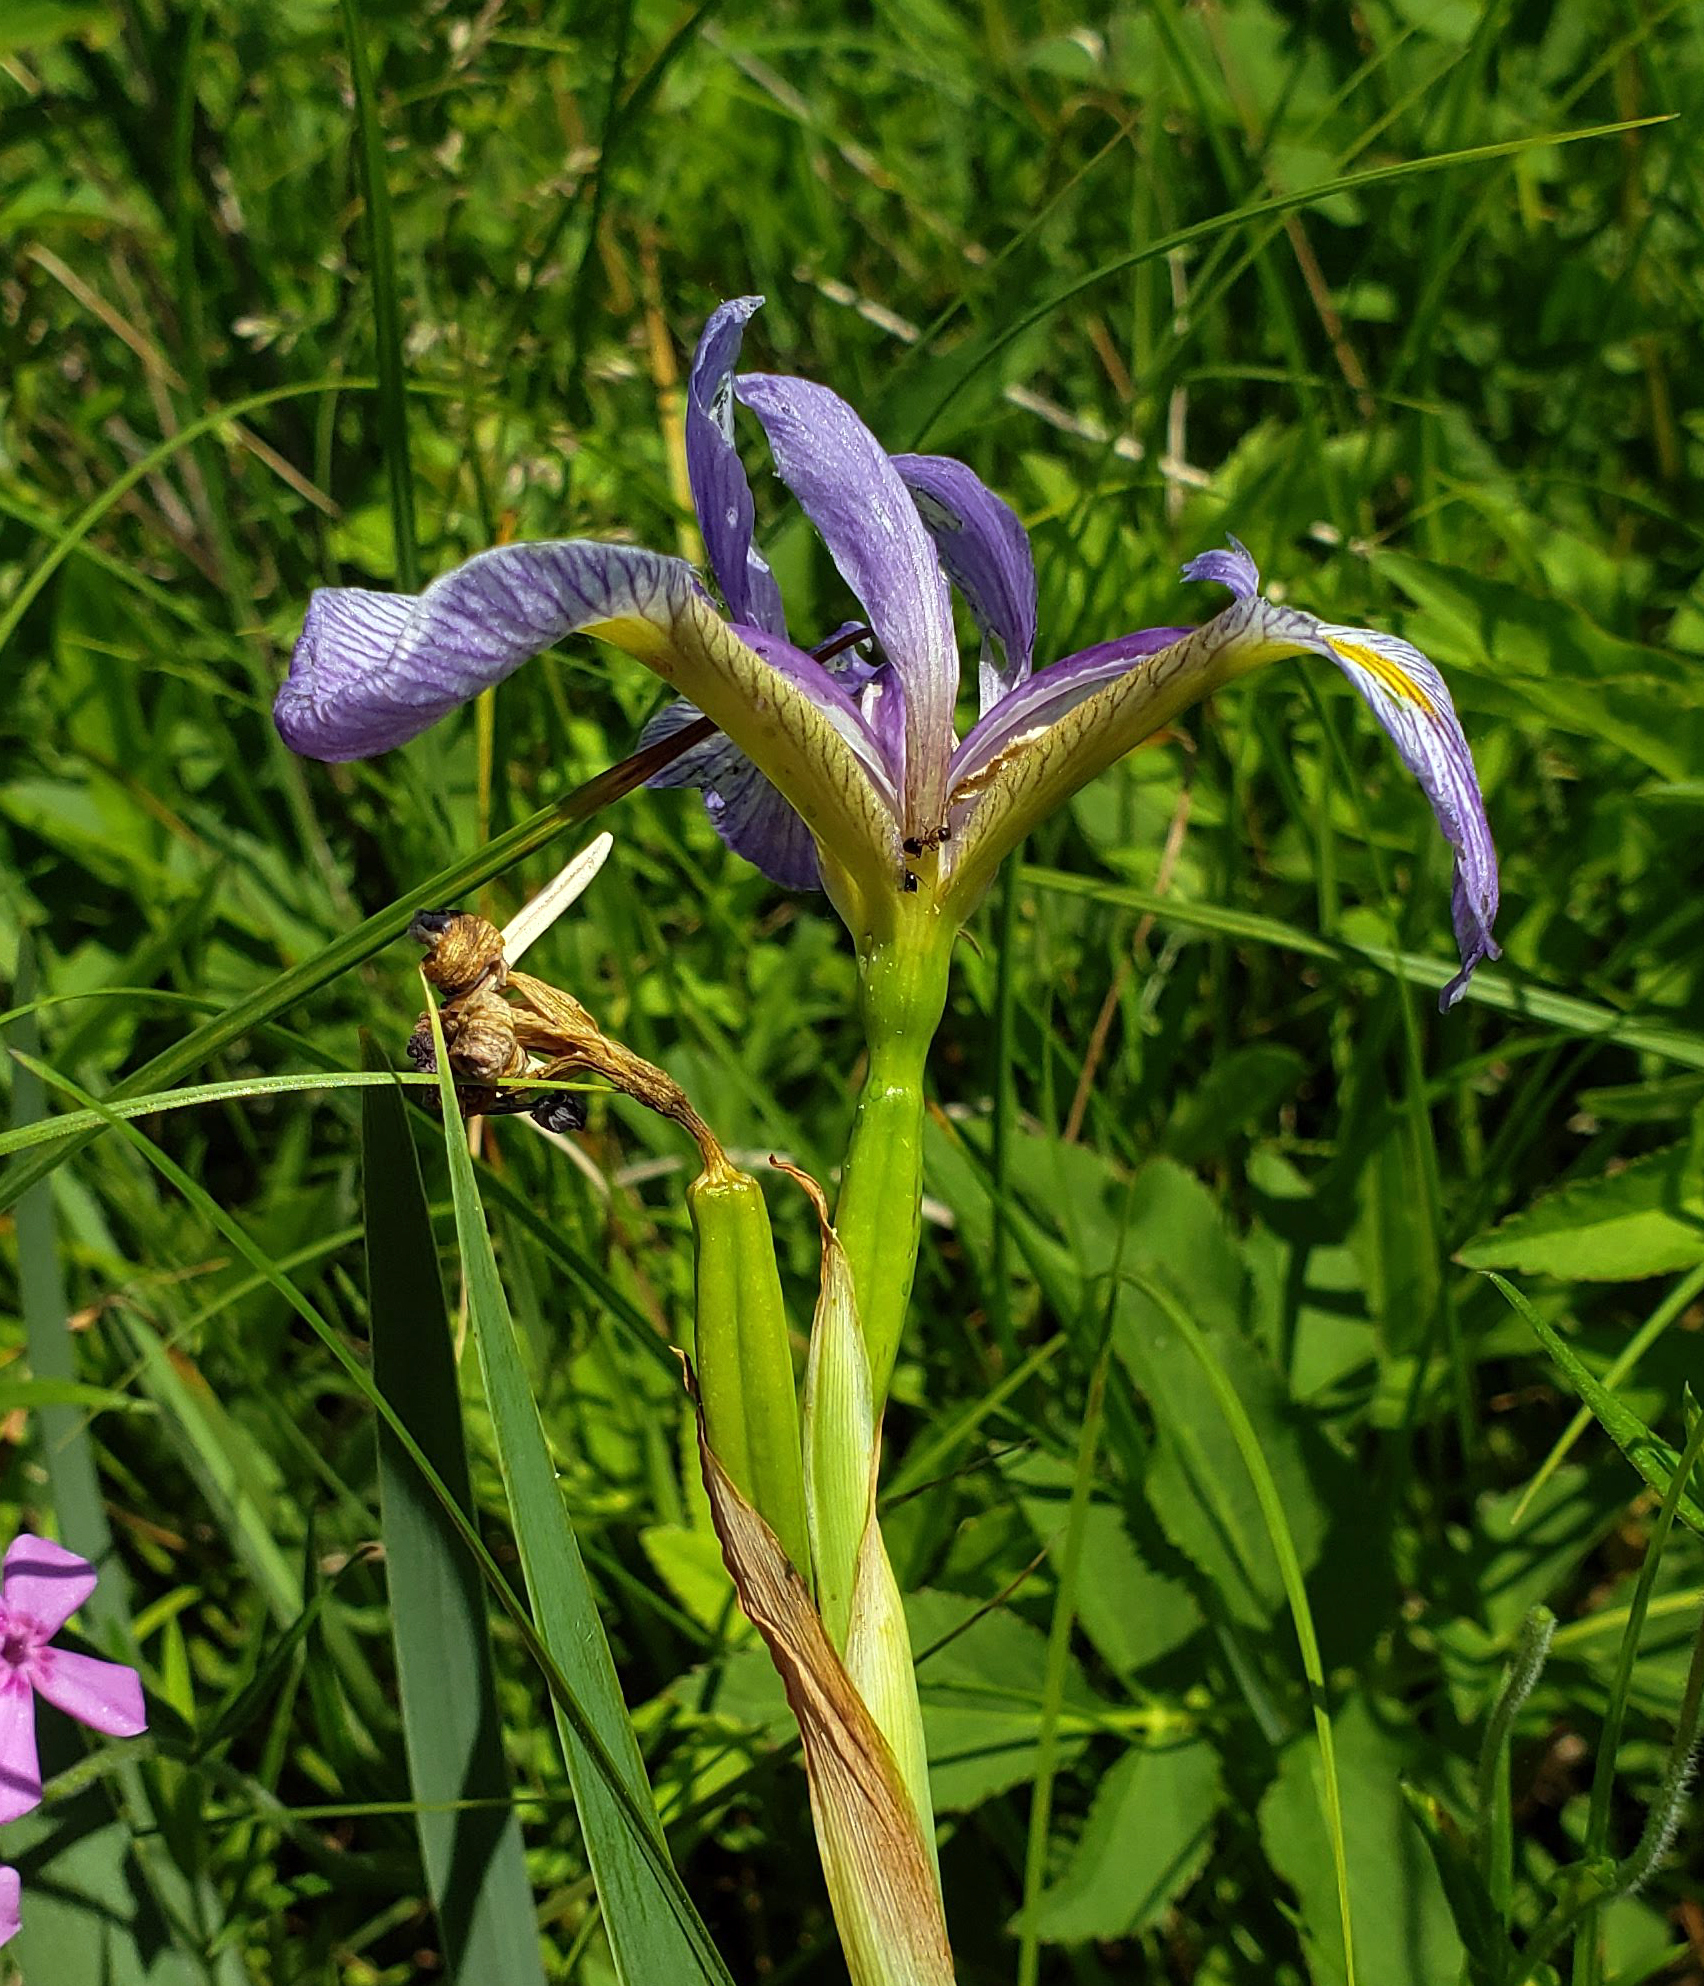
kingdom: Plantae
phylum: Tracheophyta
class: Liliopsida
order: Asparagales
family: Iridaceae
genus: Iris
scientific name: Iris virginica
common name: Southern blue flag
